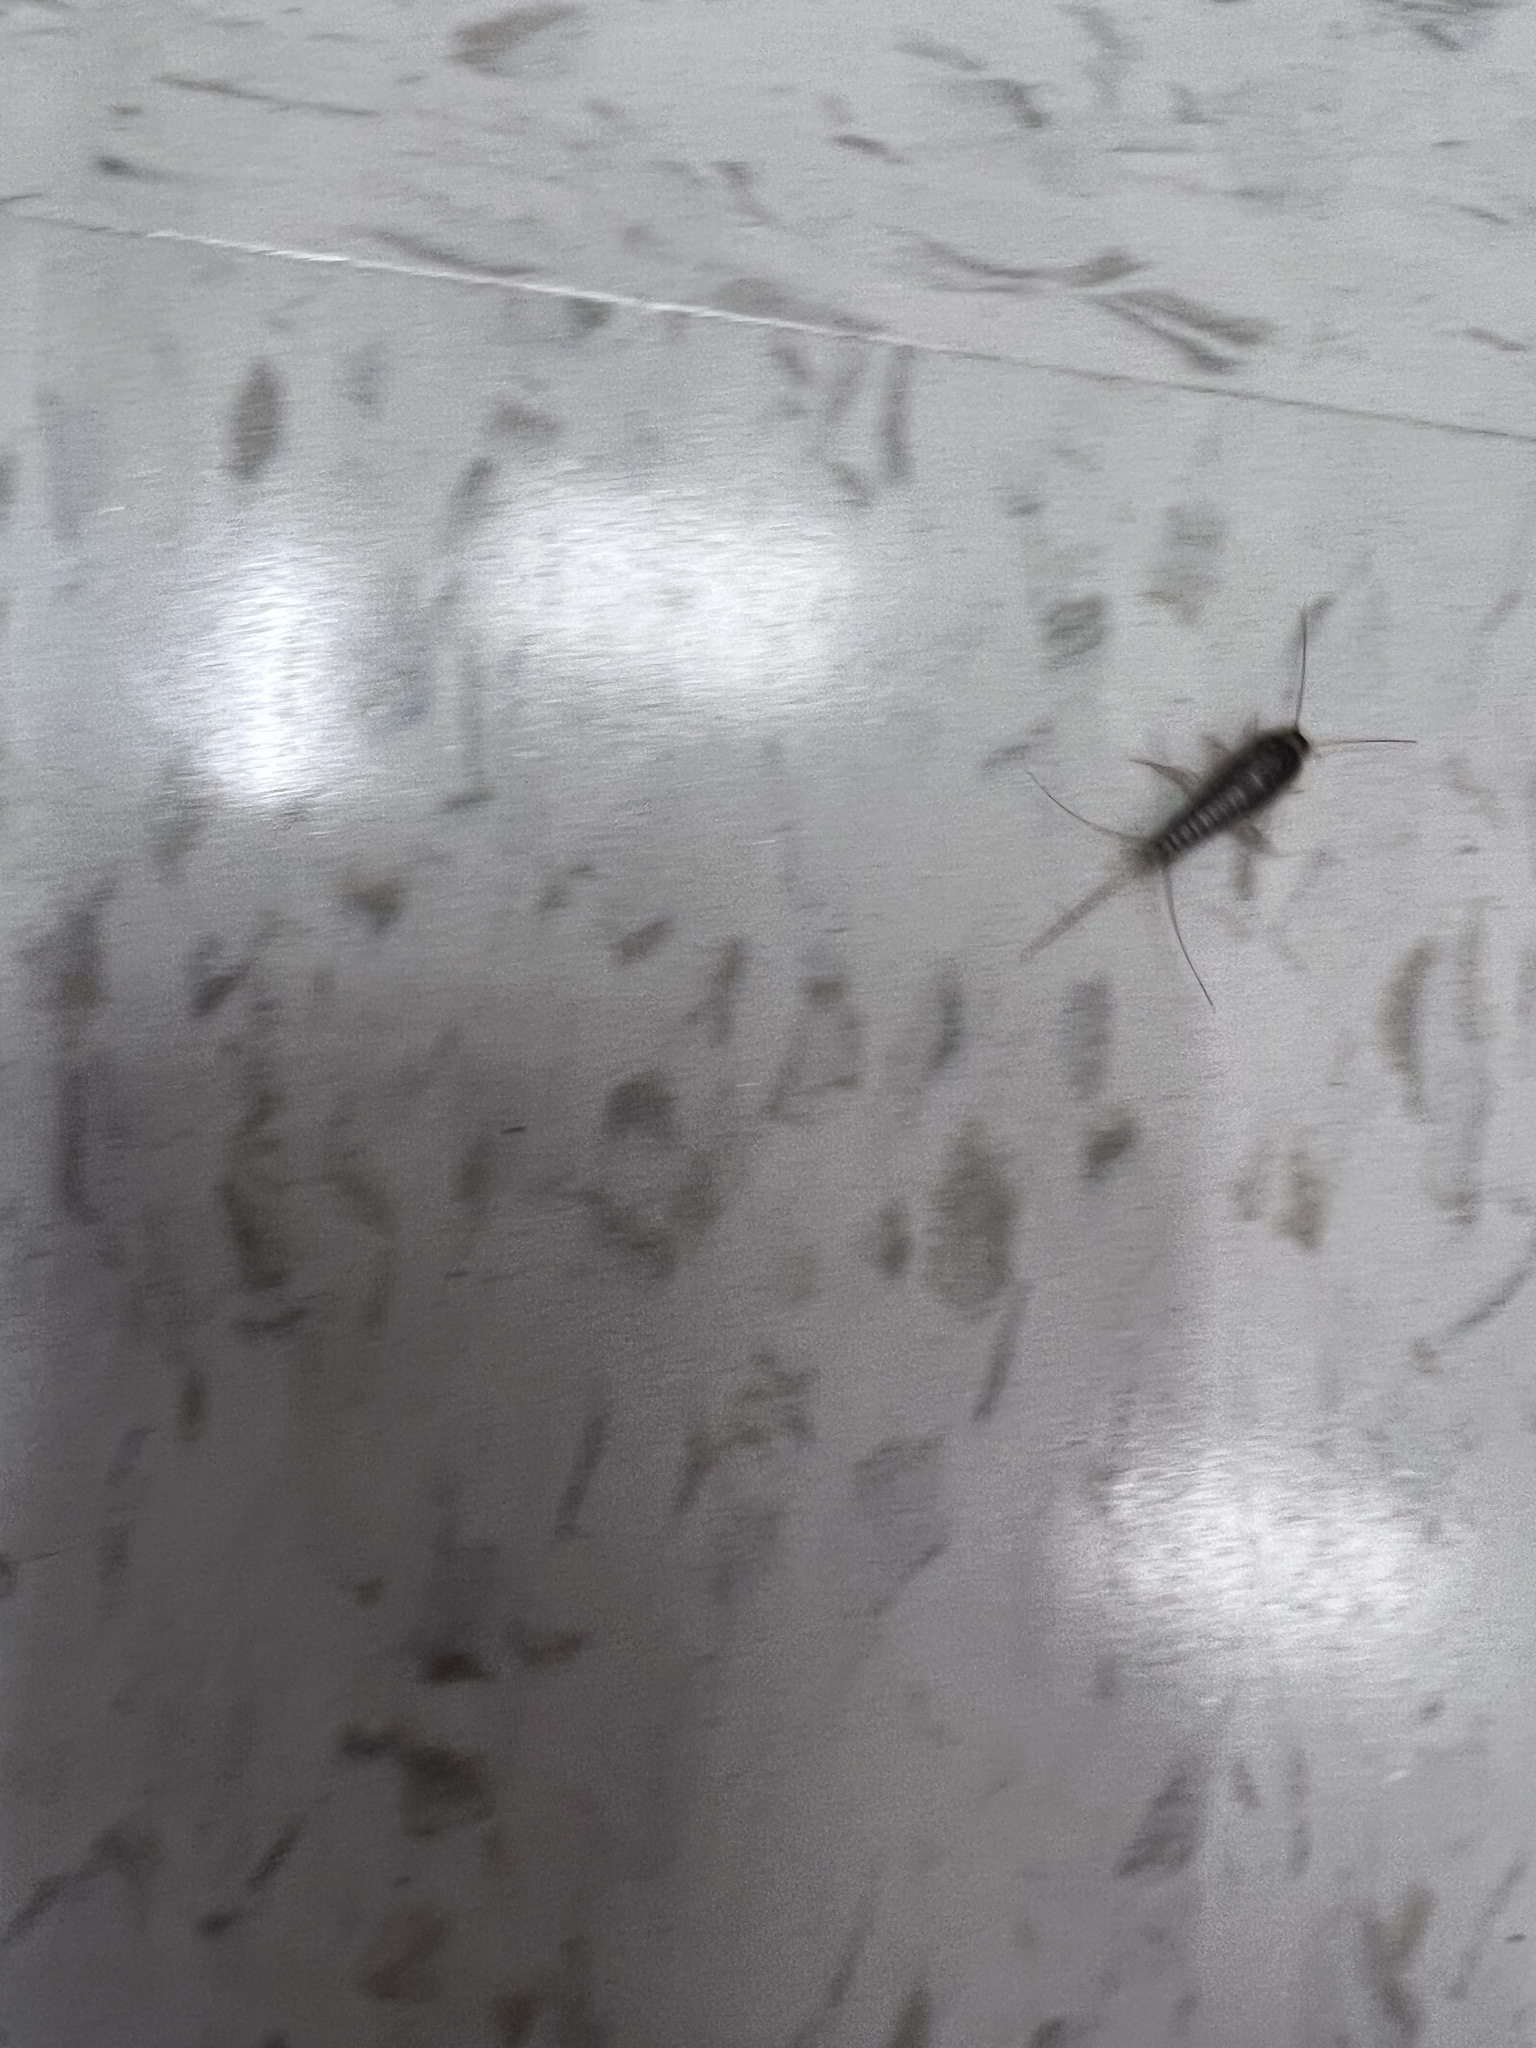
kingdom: Animalia
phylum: Arthropoda
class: Insecta
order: Zygentoma
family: Lepismatidae
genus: Lepisma
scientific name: Lepisma saccharinum
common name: Silverfish
